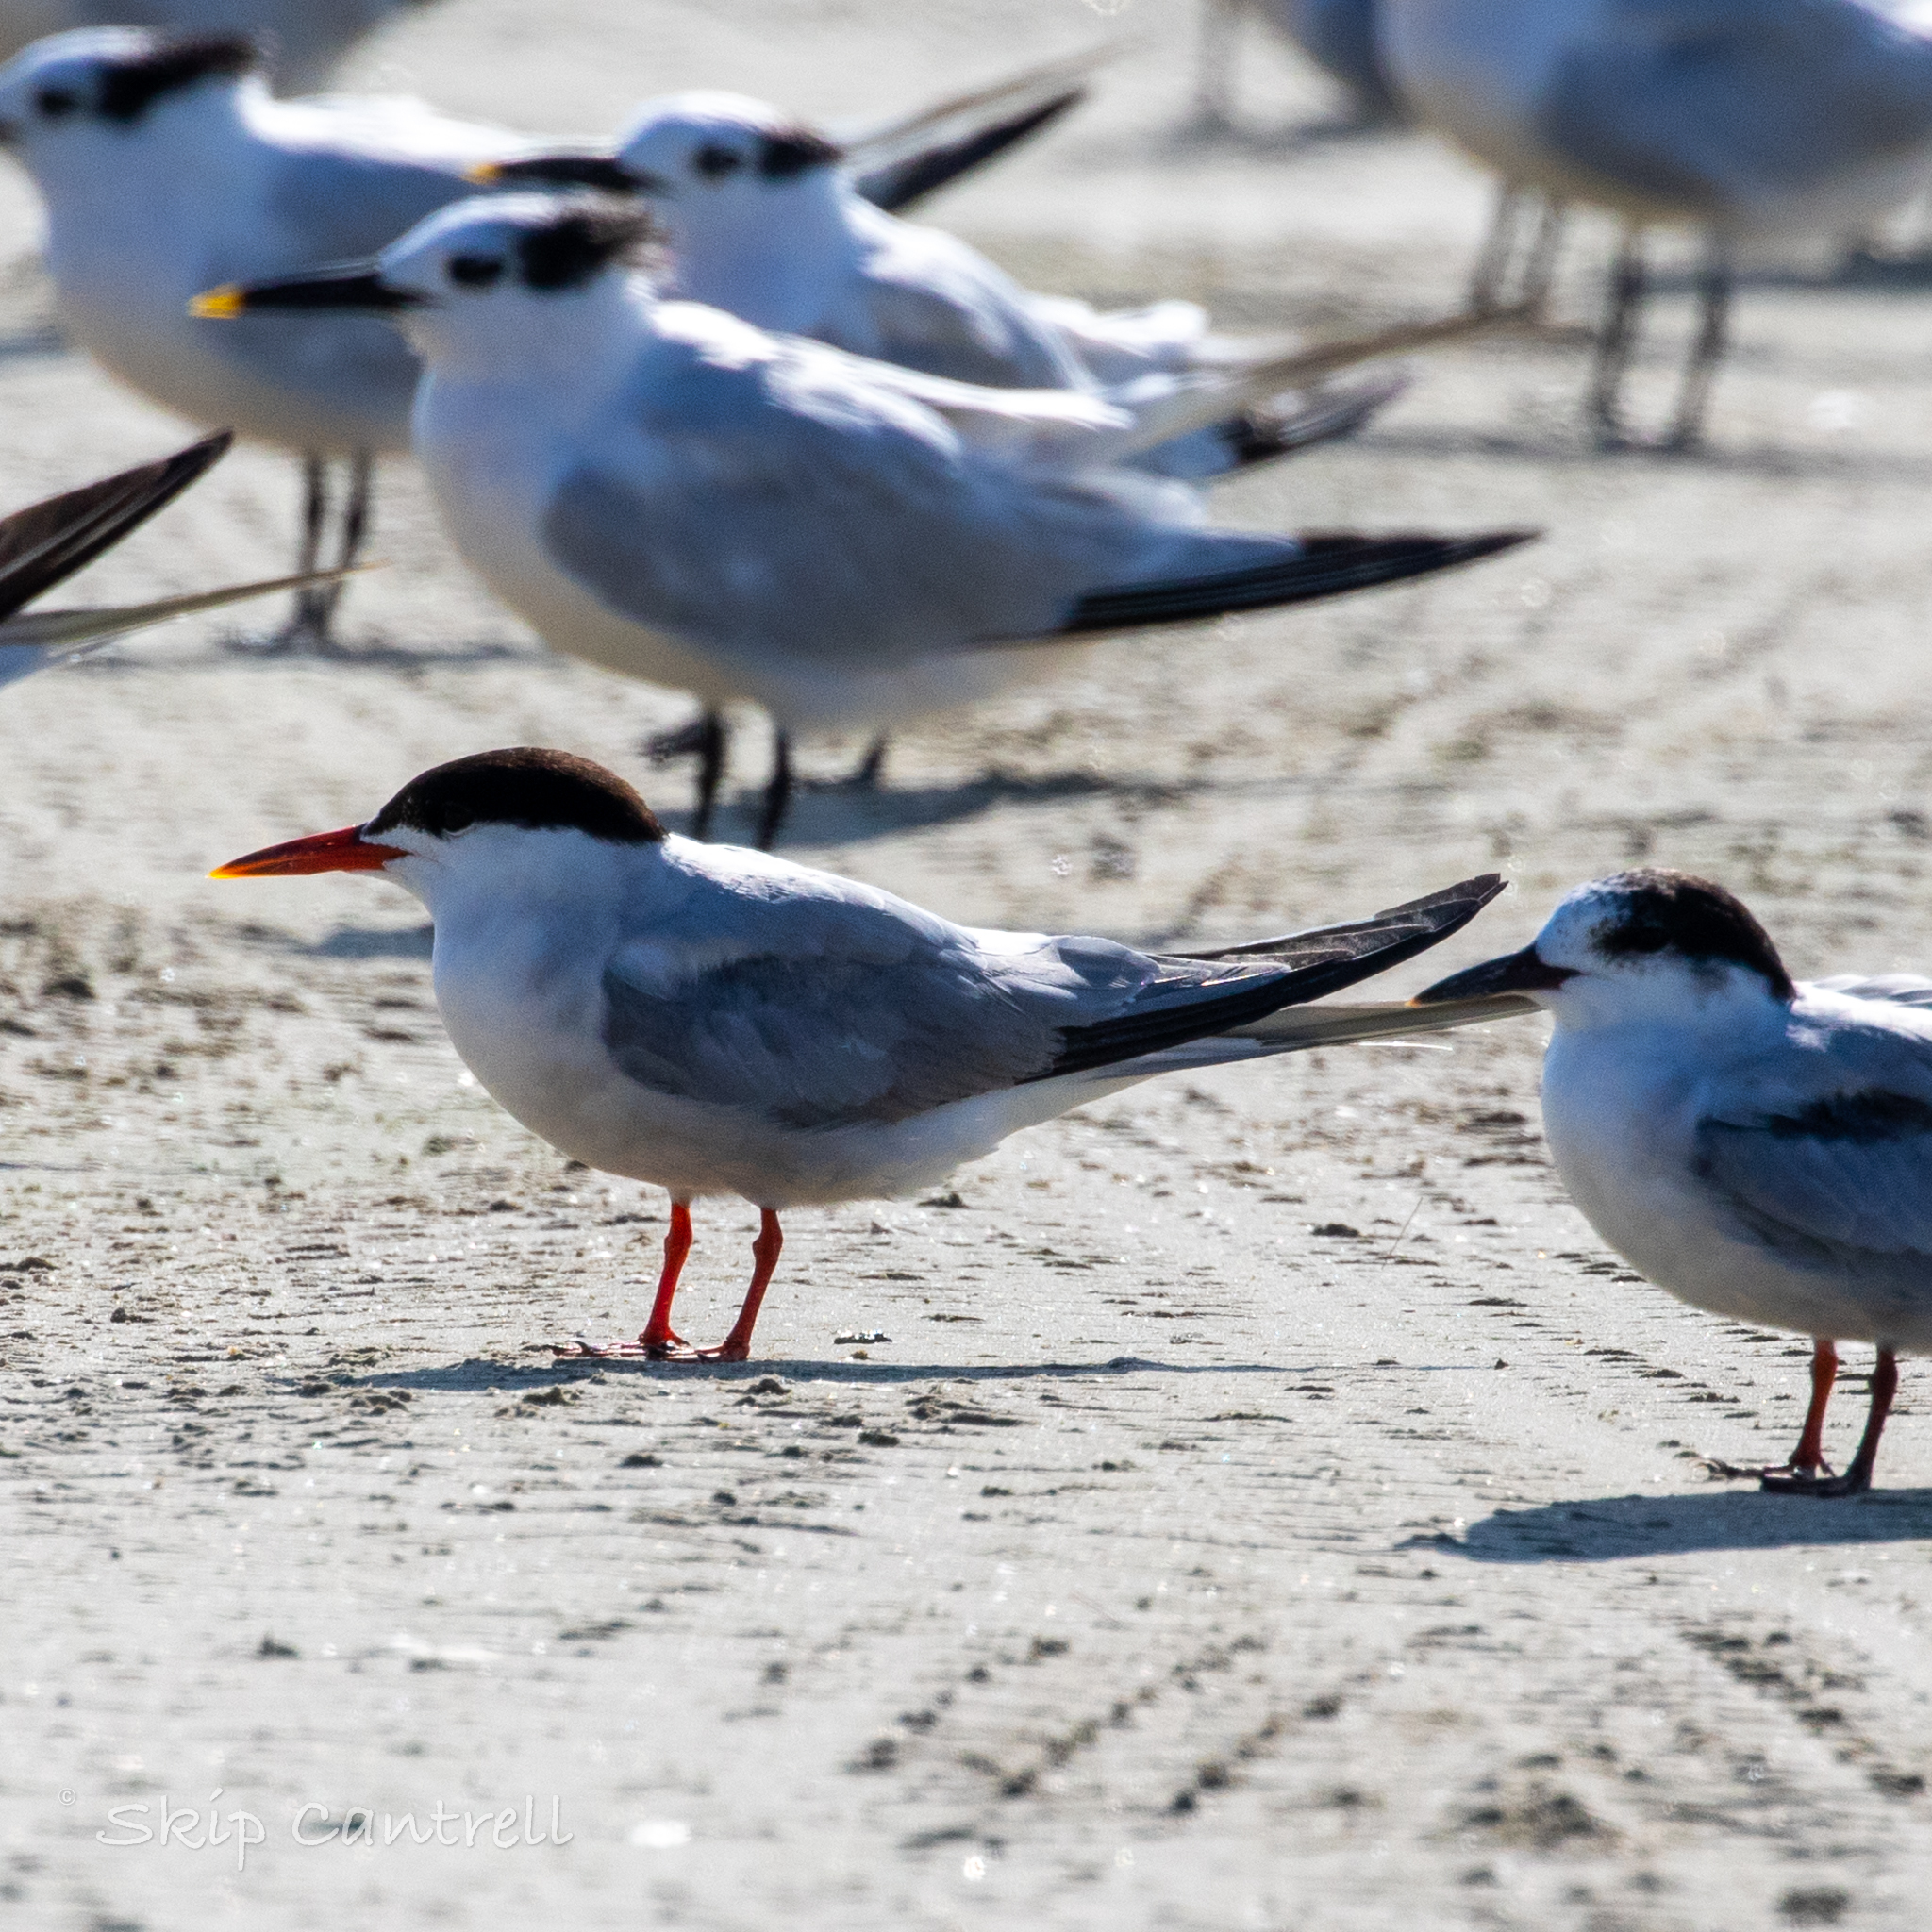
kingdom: Animalia
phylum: Chordata
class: Aves
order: Charadriiformes
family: Laridae
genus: Sterna
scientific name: Sterna hirundo
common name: Common tern
